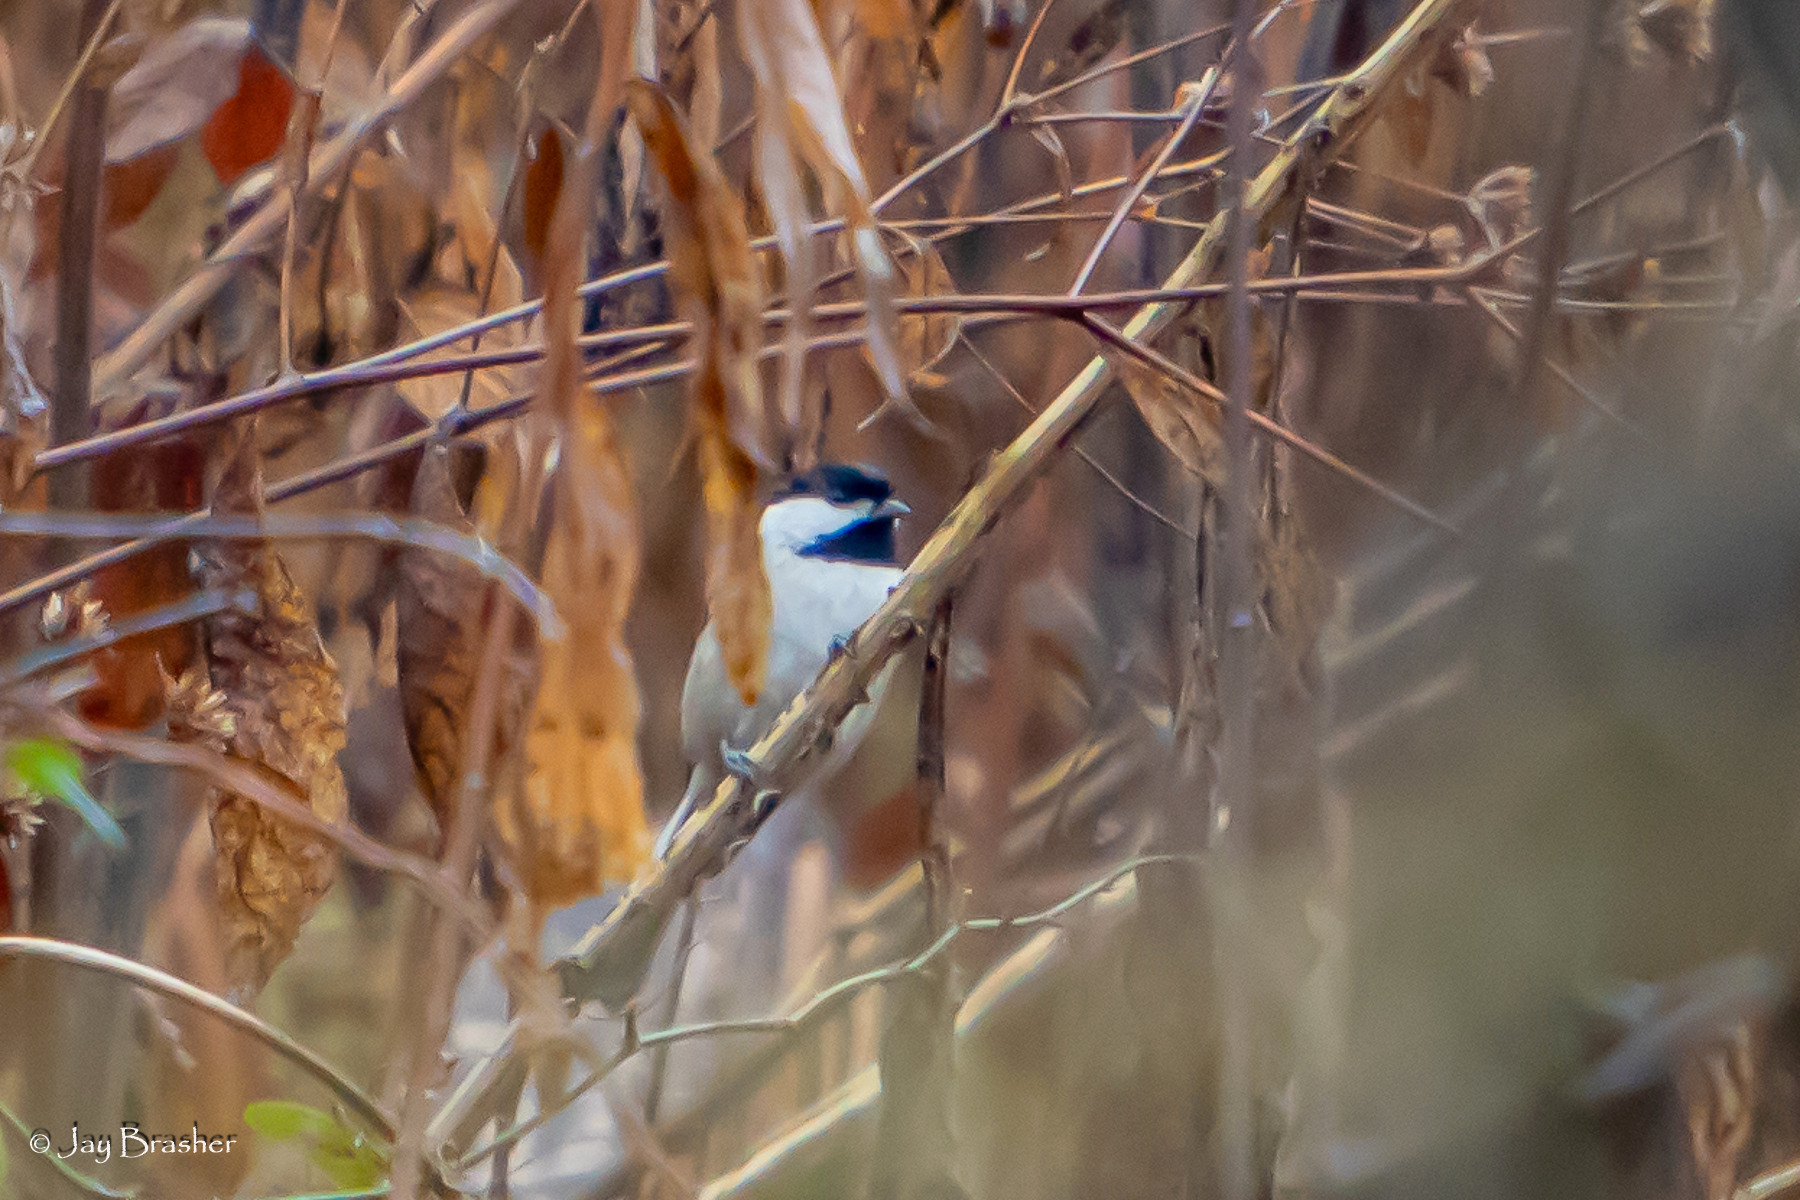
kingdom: Animalia
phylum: Chordata
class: Aves
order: Passeriformes
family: Paridae
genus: Poecile
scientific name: Poecile carolinensis
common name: Carolina chickadee
